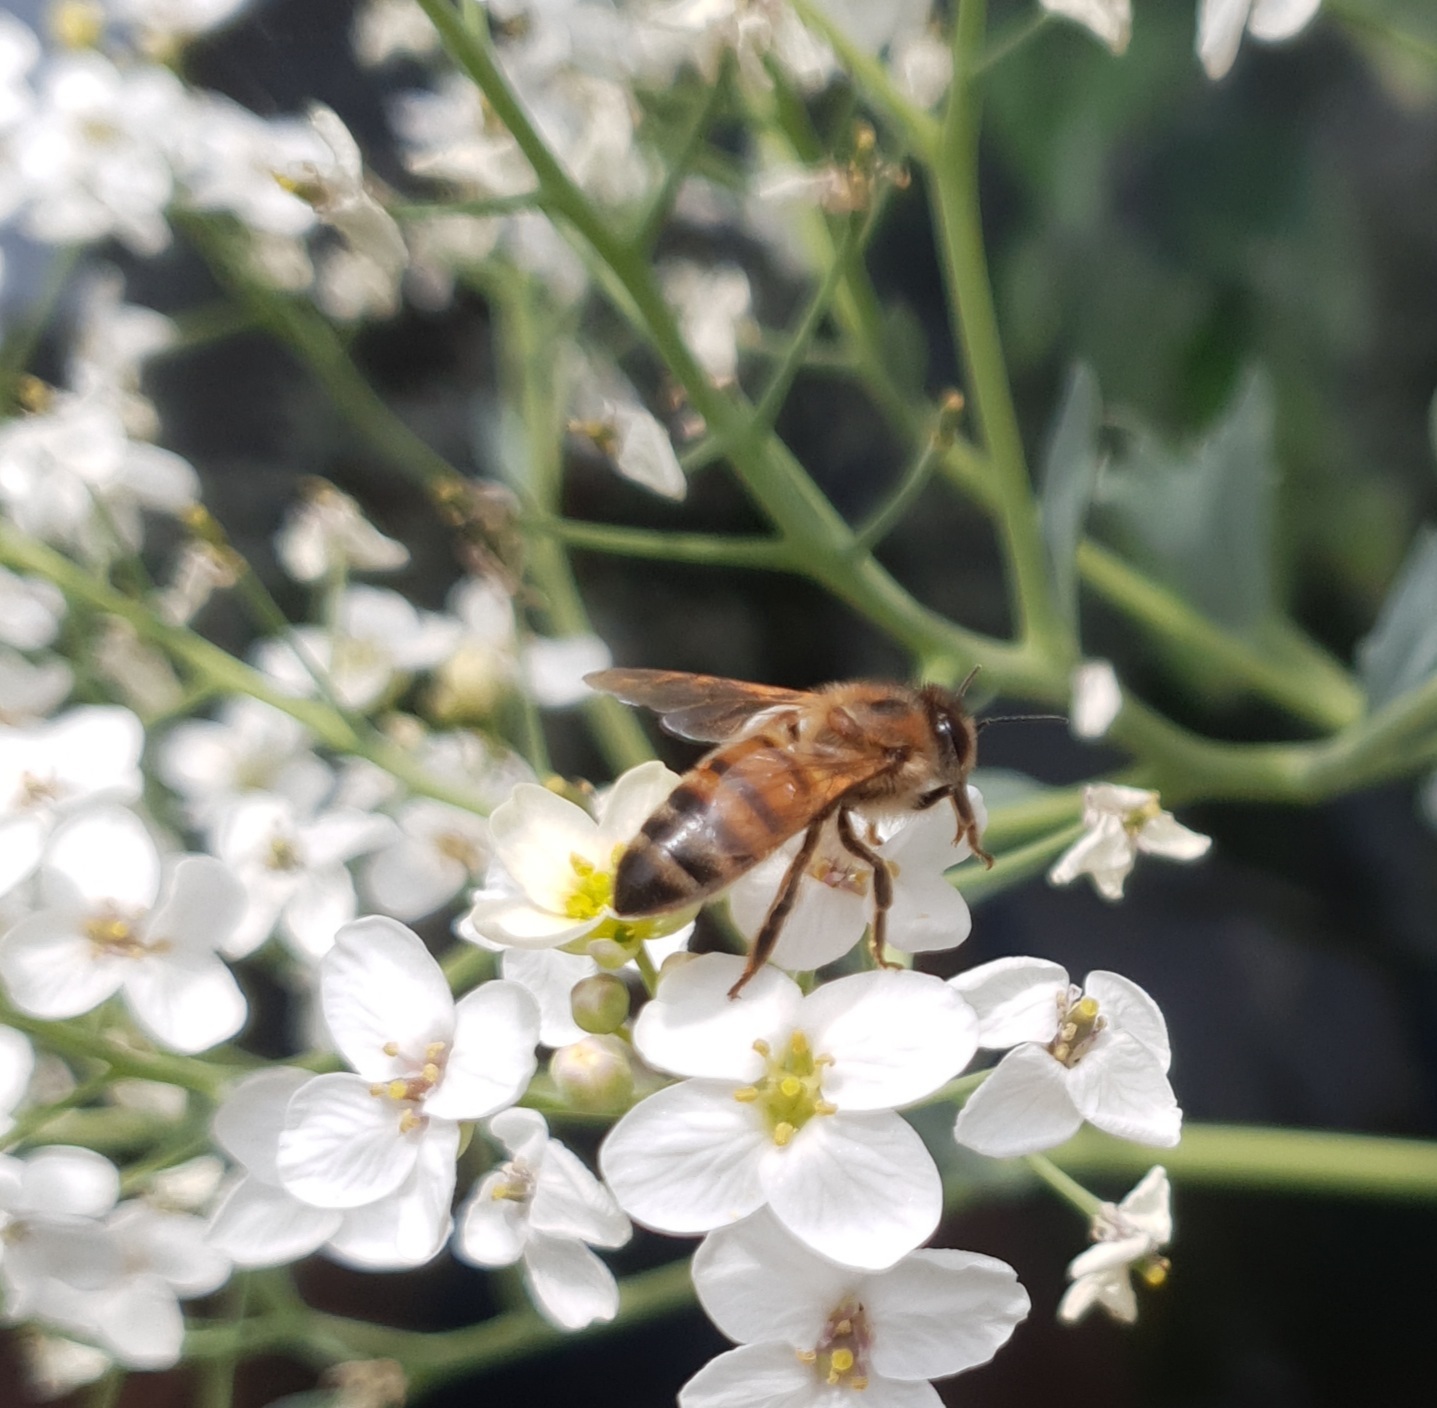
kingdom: Animalia
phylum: Arthropoda
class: Insecta
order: Hymenoptera
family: Apidae
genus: Apis
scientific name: Apis mellifera
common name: Honey bee
